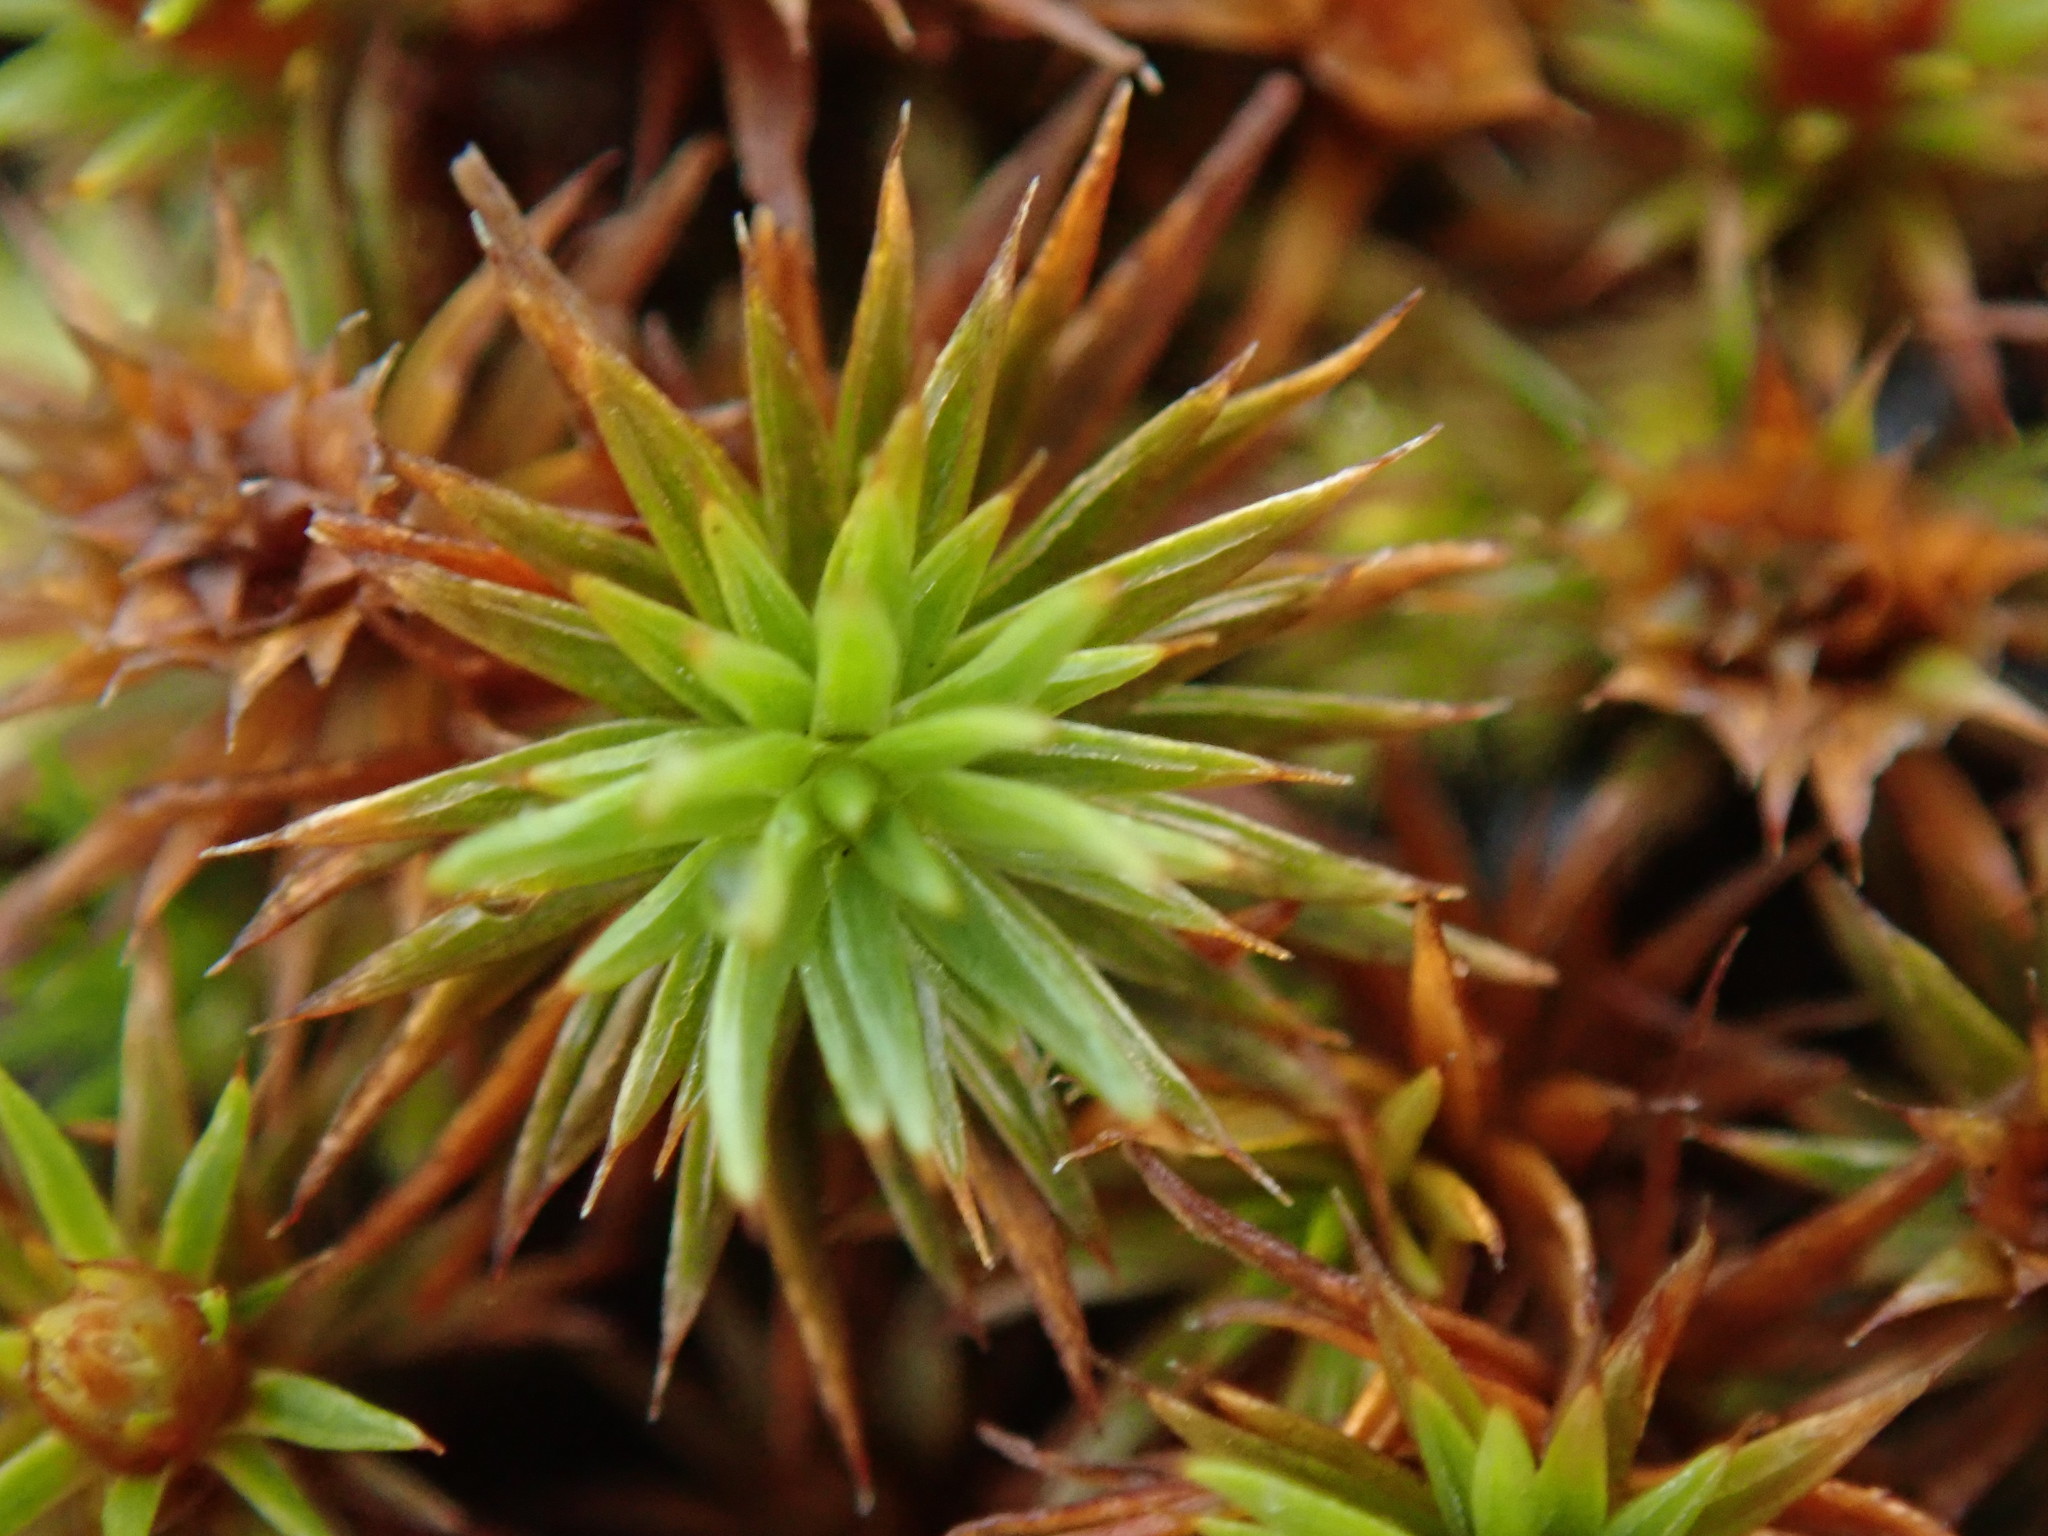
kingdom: Plantae
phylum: Bryophyta
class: Polytrichopsida
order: Polytrichales
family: Polytrichaceae
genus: Polytrichum
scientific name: Polytrichum juniperinum
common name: Juniper haircap moss
